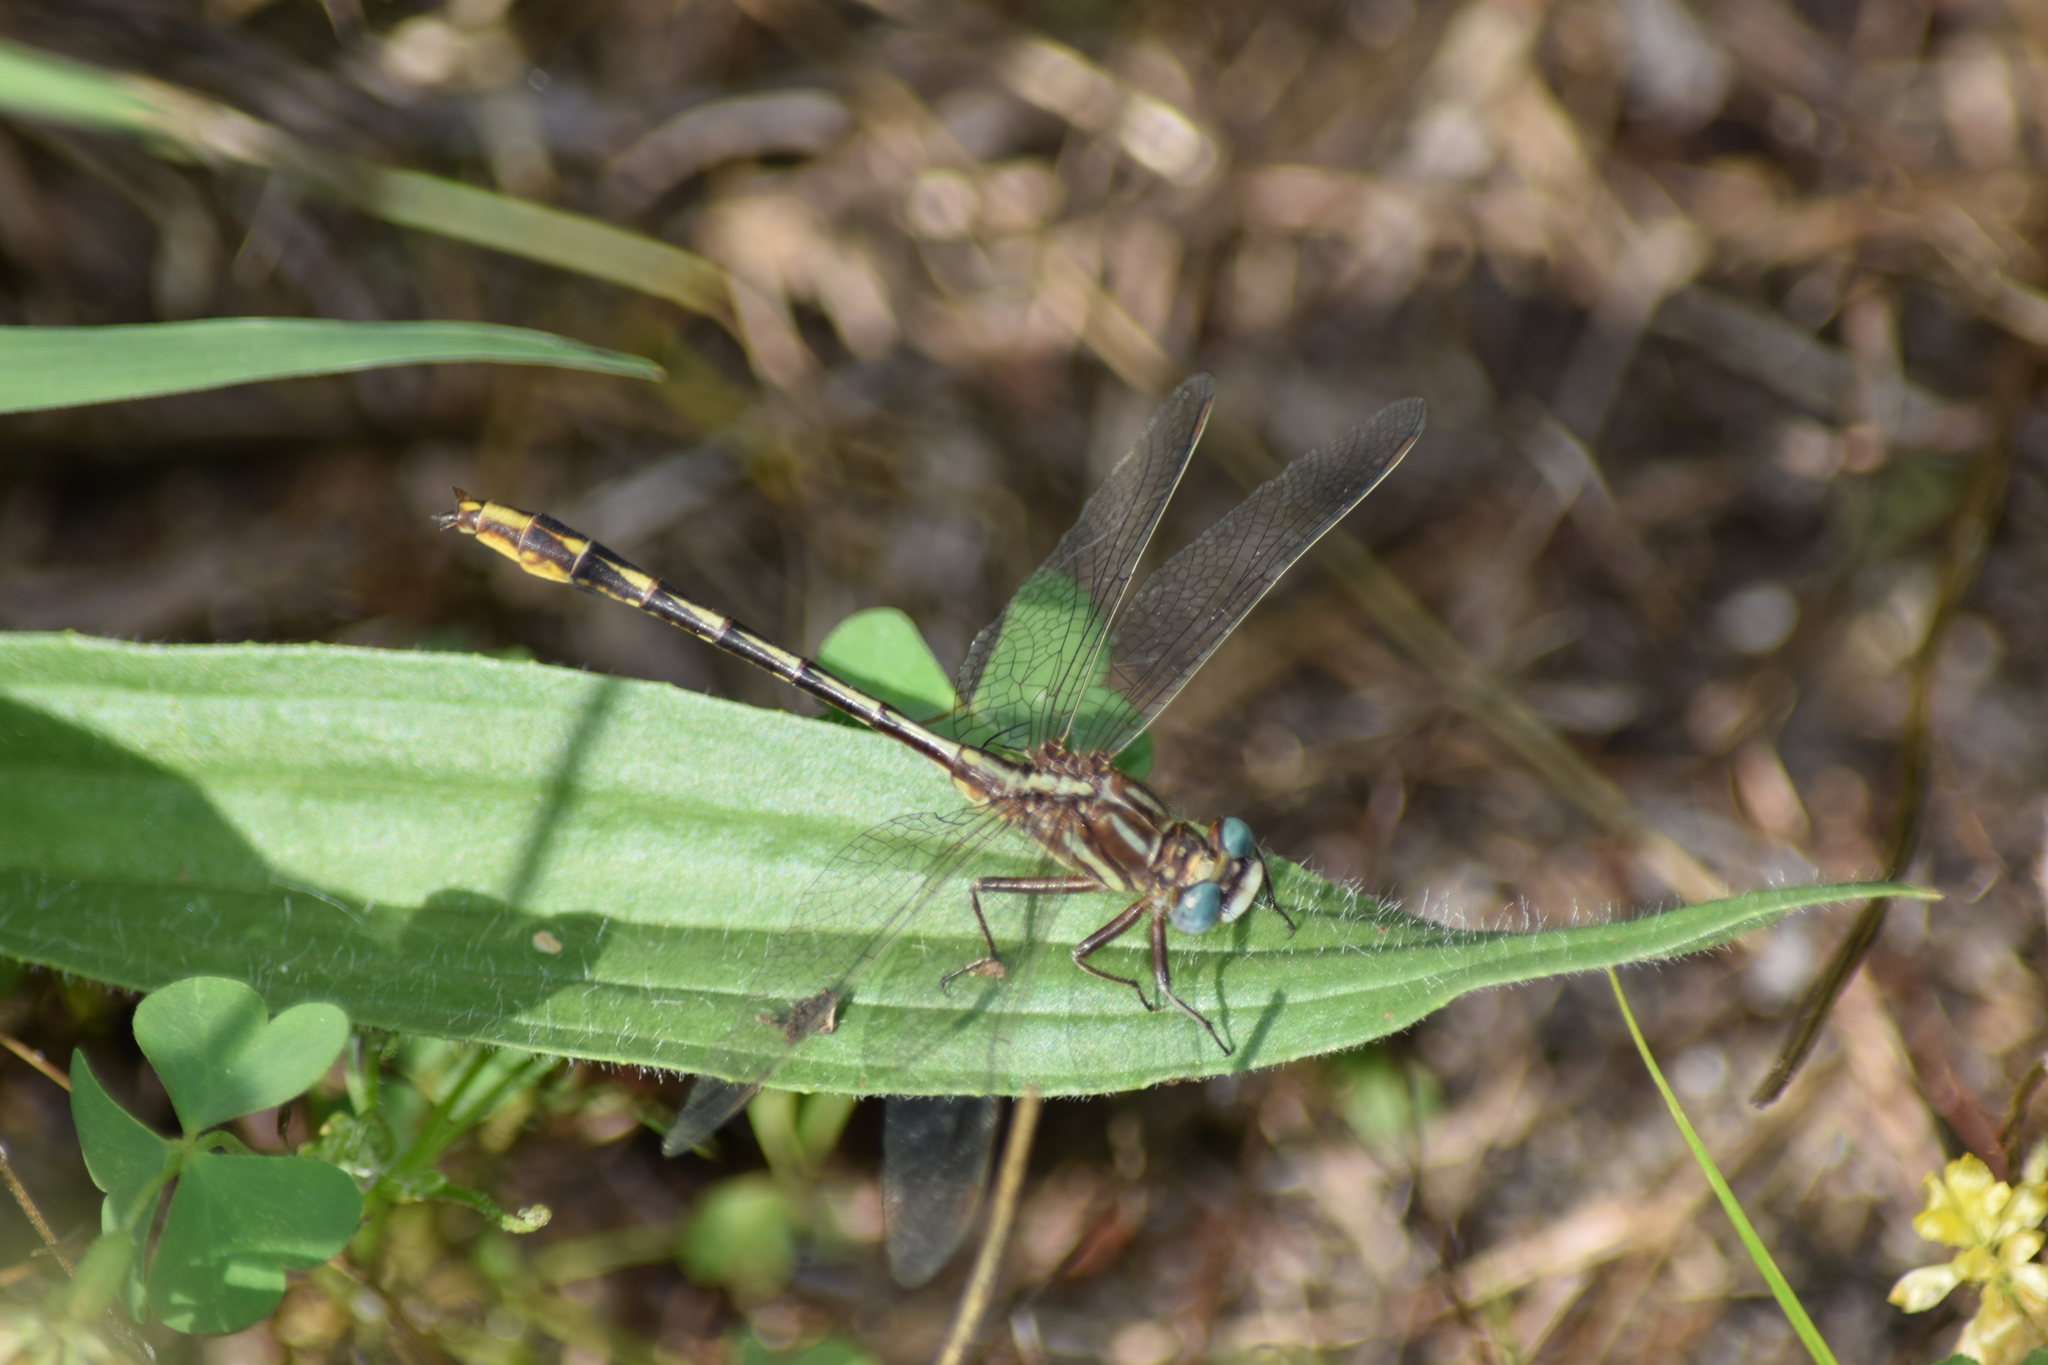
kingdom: Animalia
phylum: Arthropoda
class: Insecta
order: Odonata
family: Gomphidae
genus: Phanogomphus
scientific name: Phanogomphus exilis
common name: Lancet clubtail
